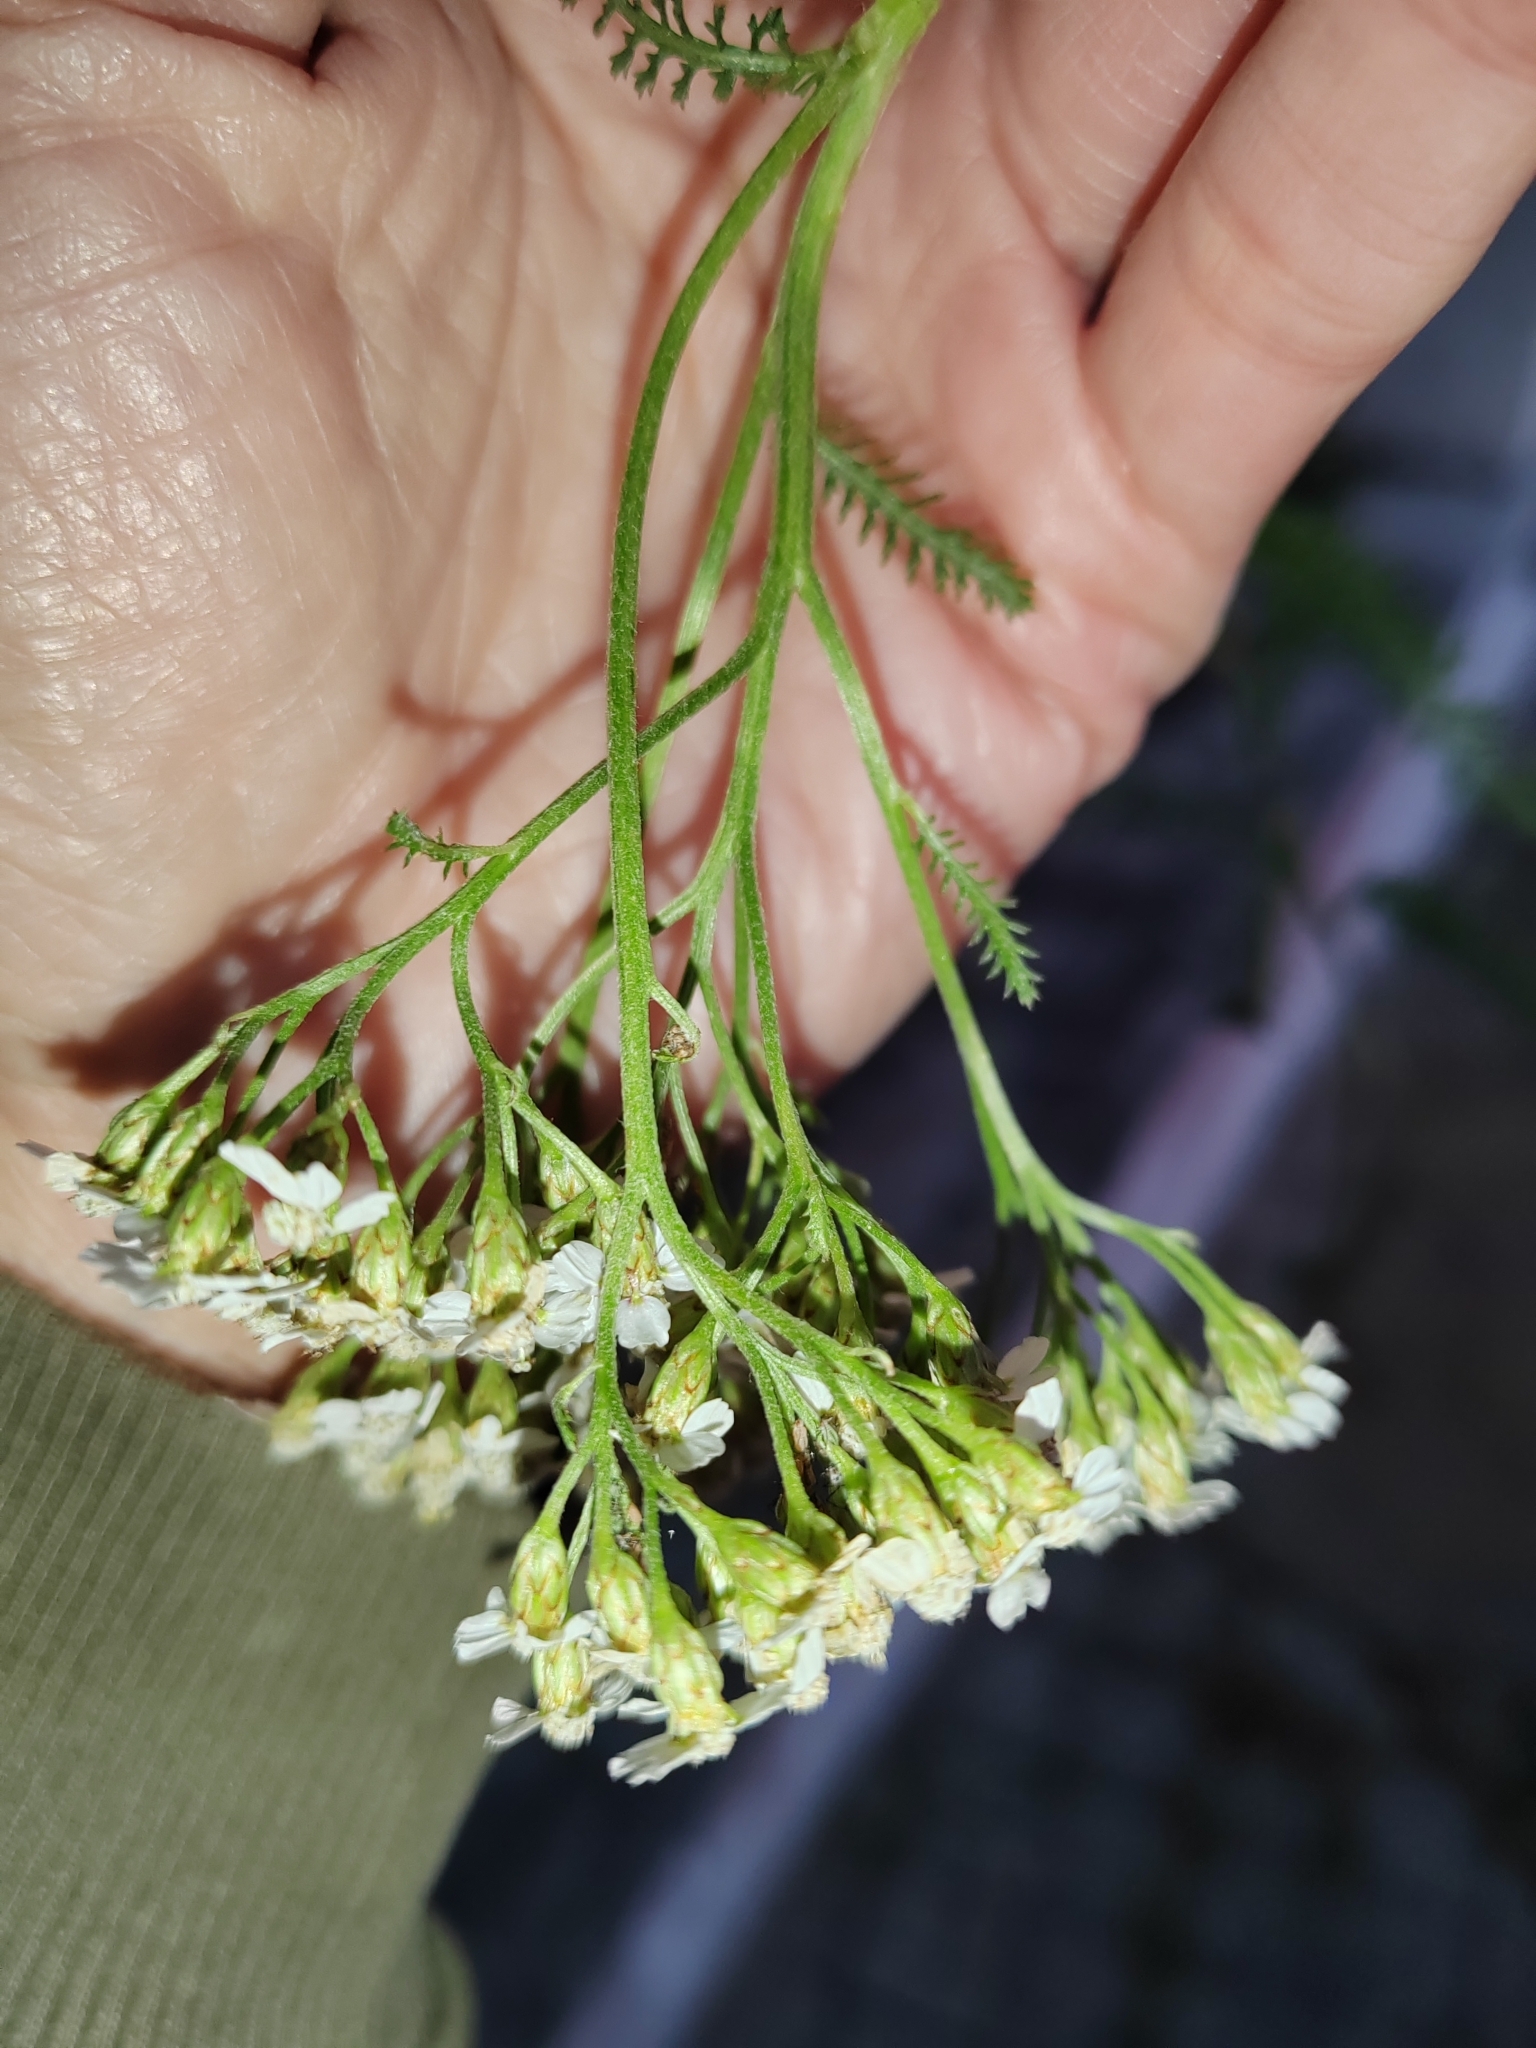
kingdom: Plantae
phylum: Tracheophyta
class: Magnoliopsida
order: Asterales
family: Asteraceae
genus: Achillea
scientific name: Achillea
